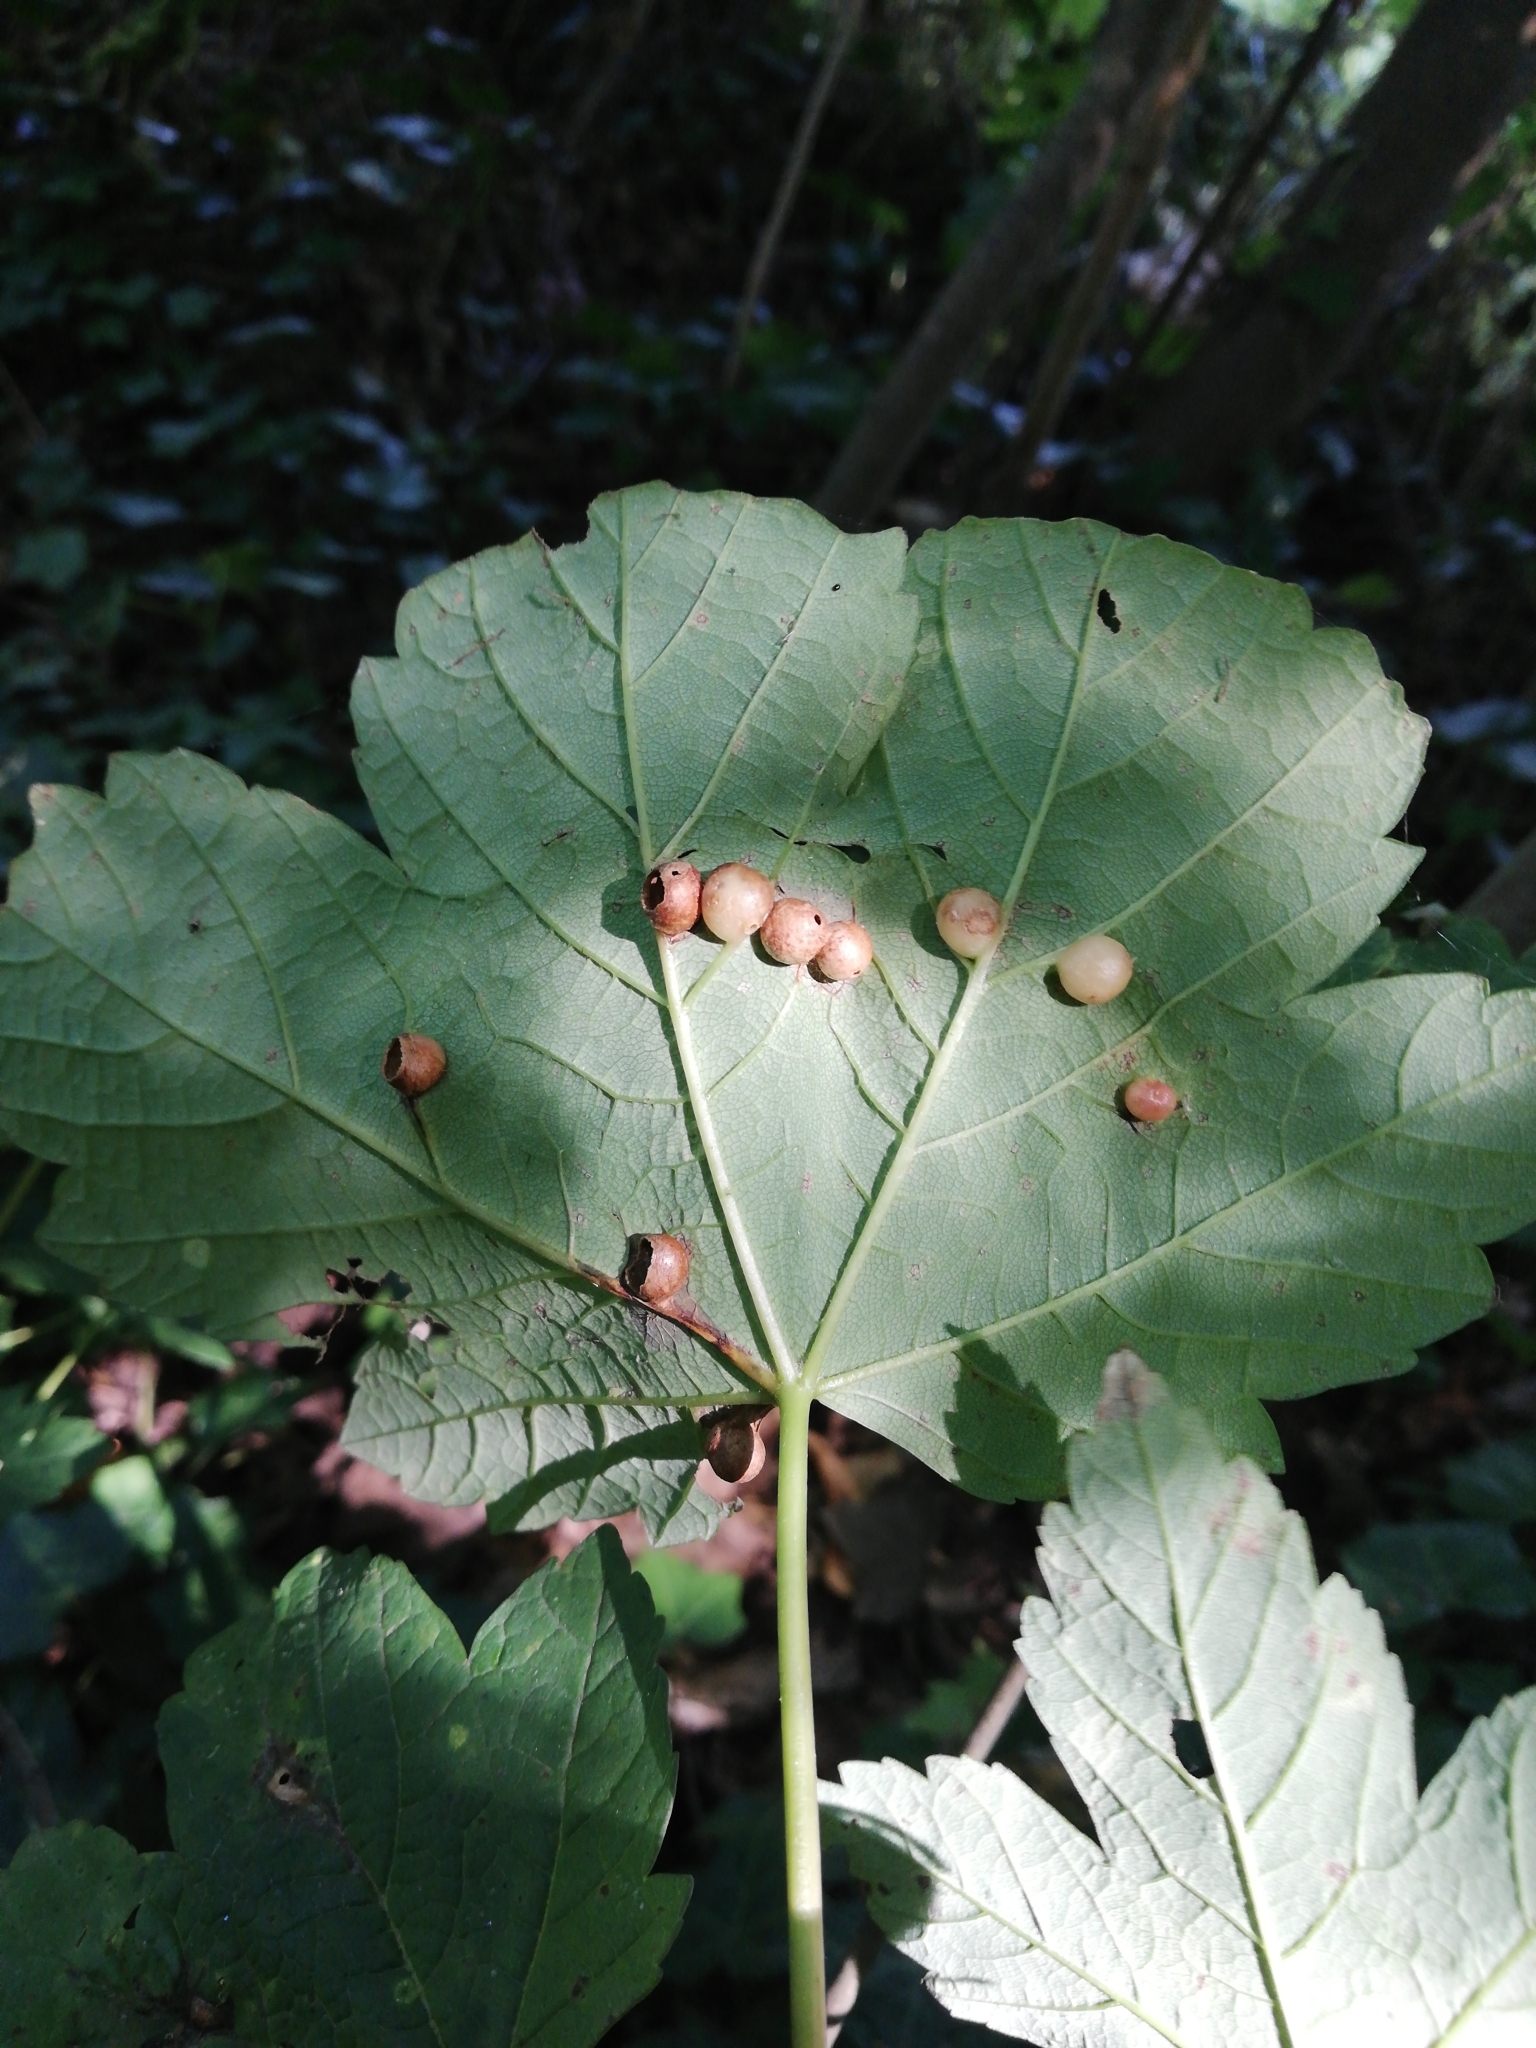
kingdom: Animalia
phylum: Arthropoda
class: Insecta
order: Hymenoptera
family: Cynipidae
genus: Pediaspis
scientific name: Pediaspis aceris
